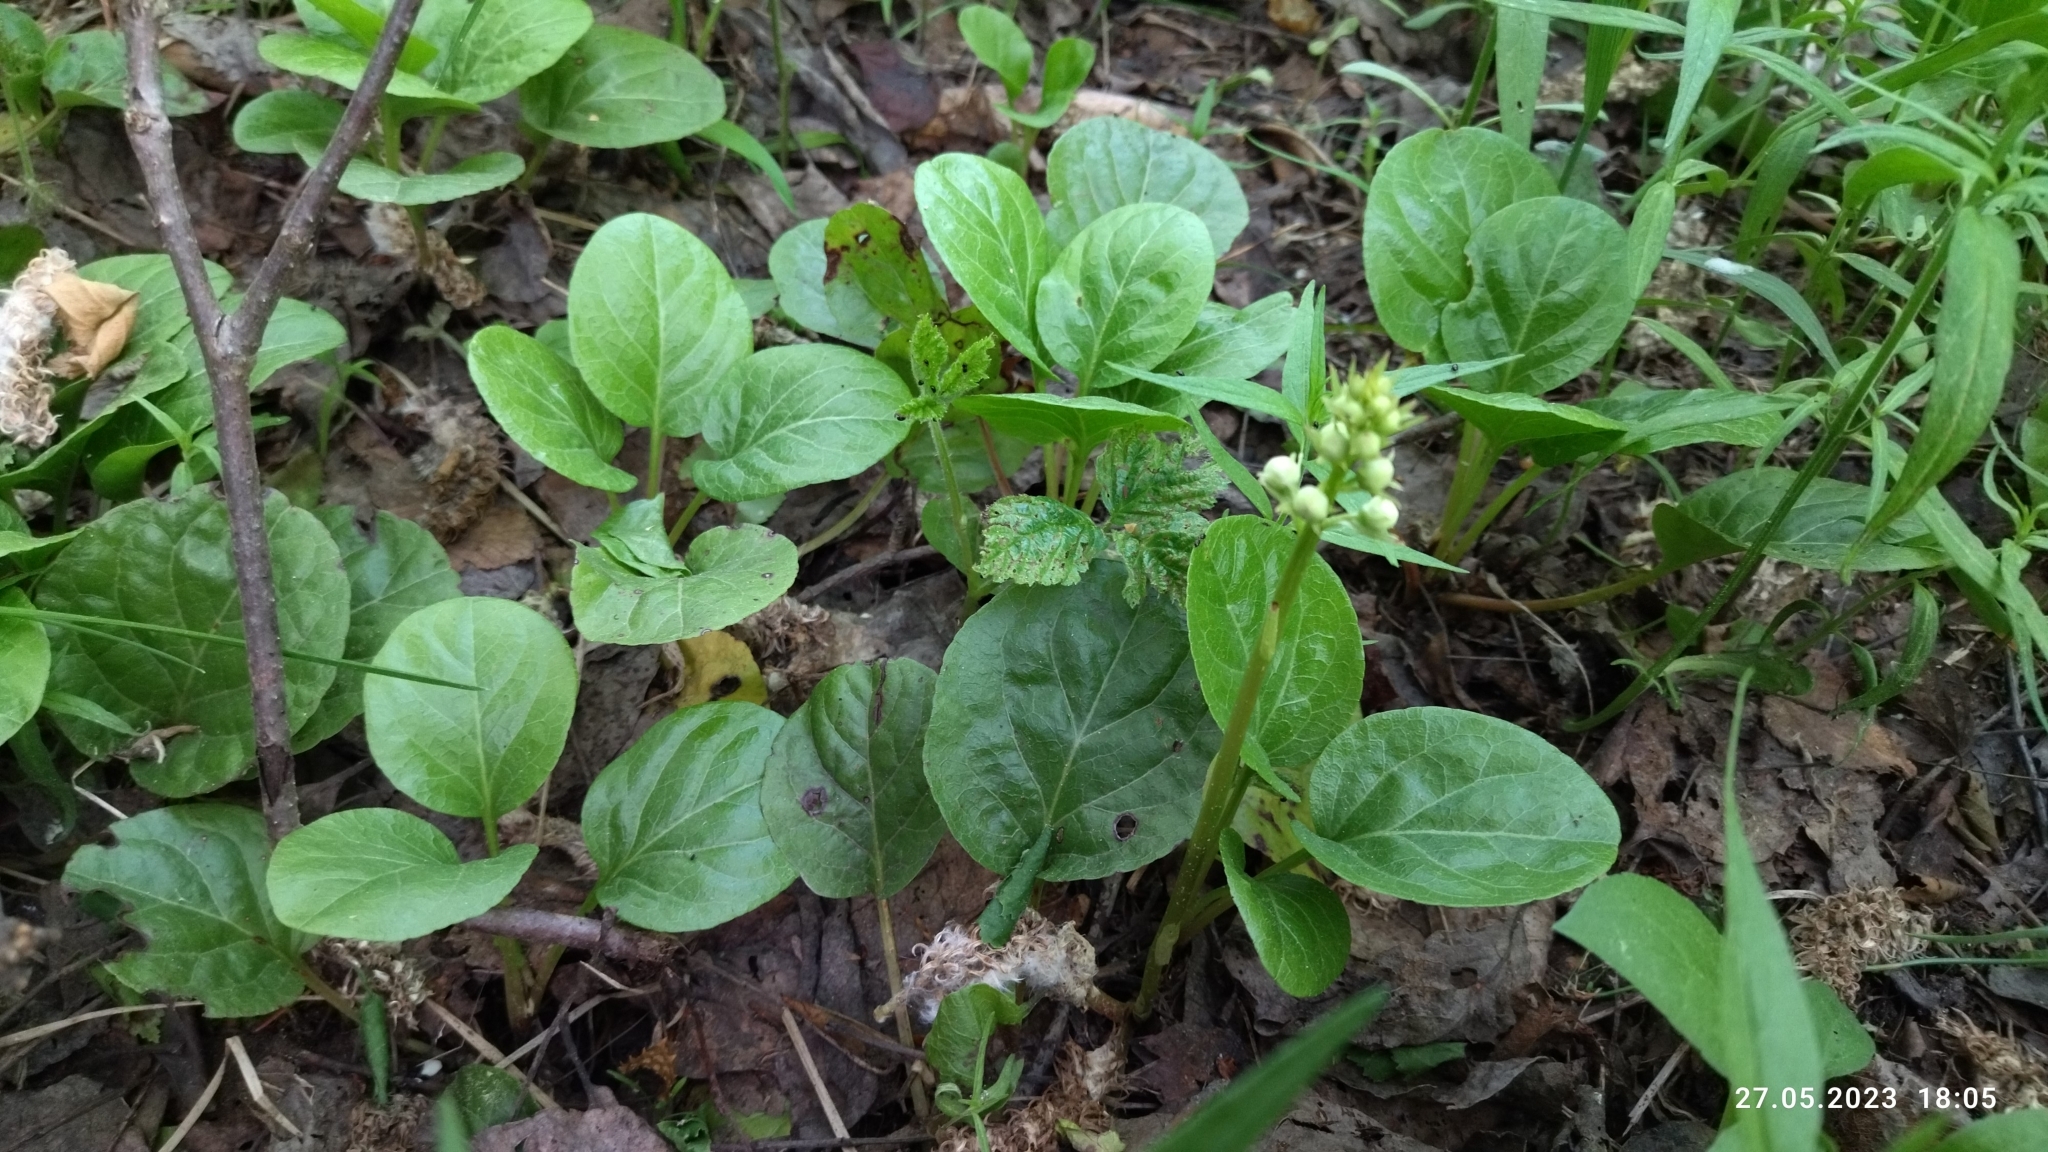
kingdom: Plantae
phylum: Tracheophyta
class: Magnoliopsida
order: Ericales
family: Ericaceae
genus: Pyrola
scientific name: Pyrola rotundifolia
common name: Round-leaved wintergreen
